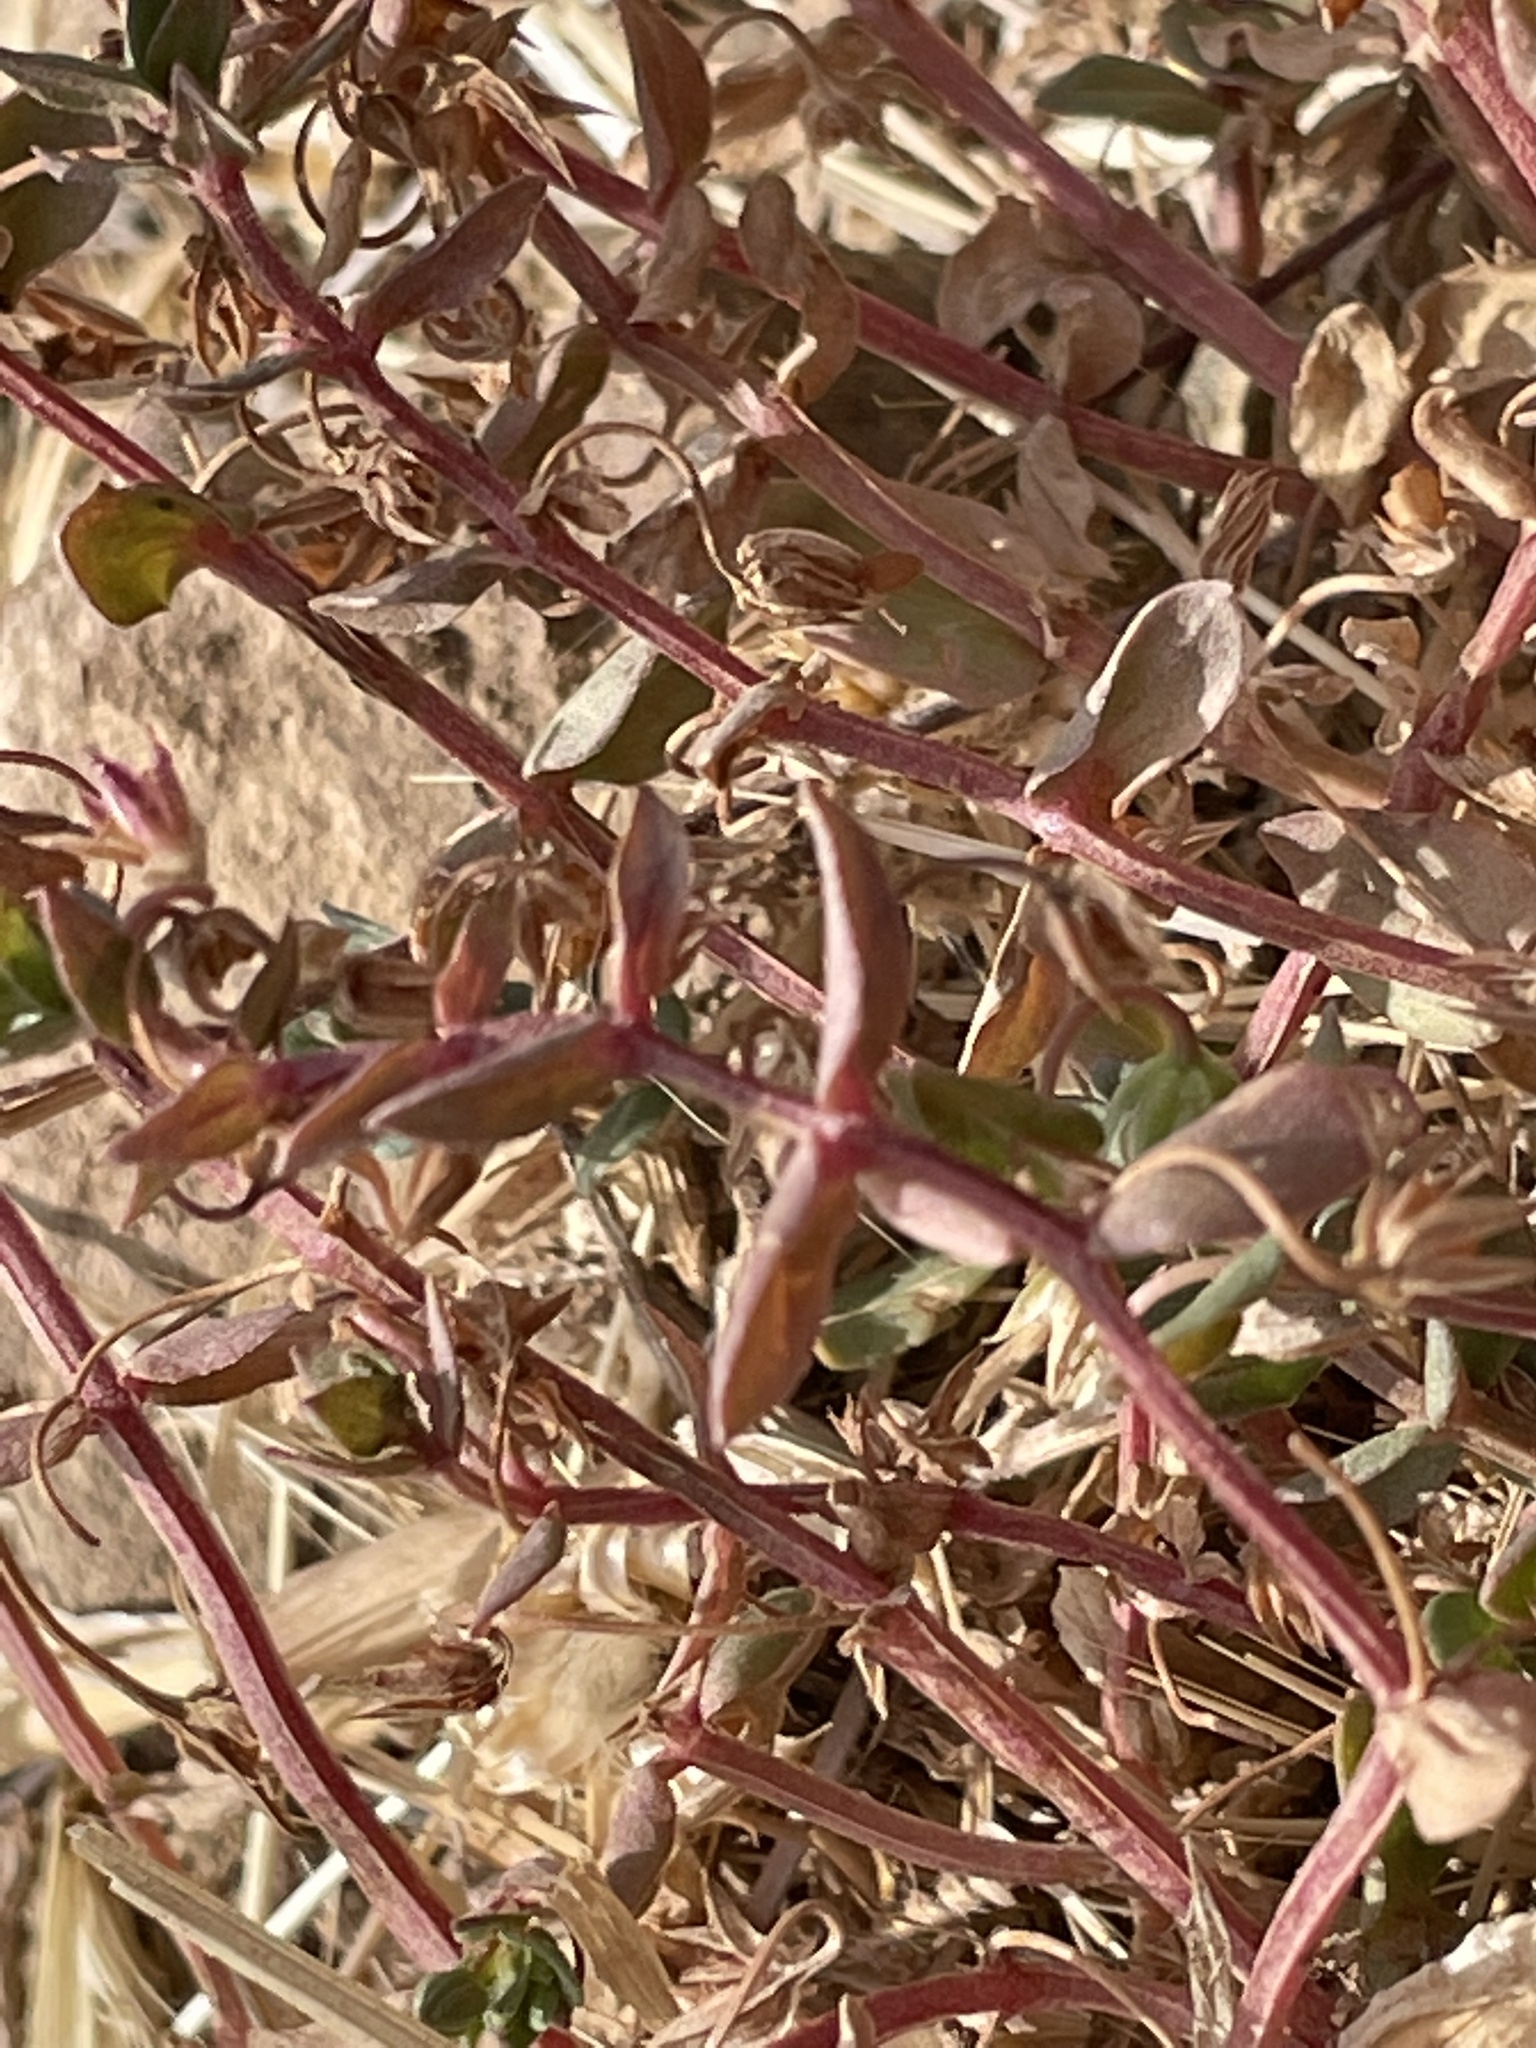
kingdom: Plantae
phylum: Tracheophyta
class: Magnoliopsida
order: Ericales
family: Primulaceae
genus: Lysimachia
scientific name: Lysimachia arvensis
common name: Scarlet pimpernel
